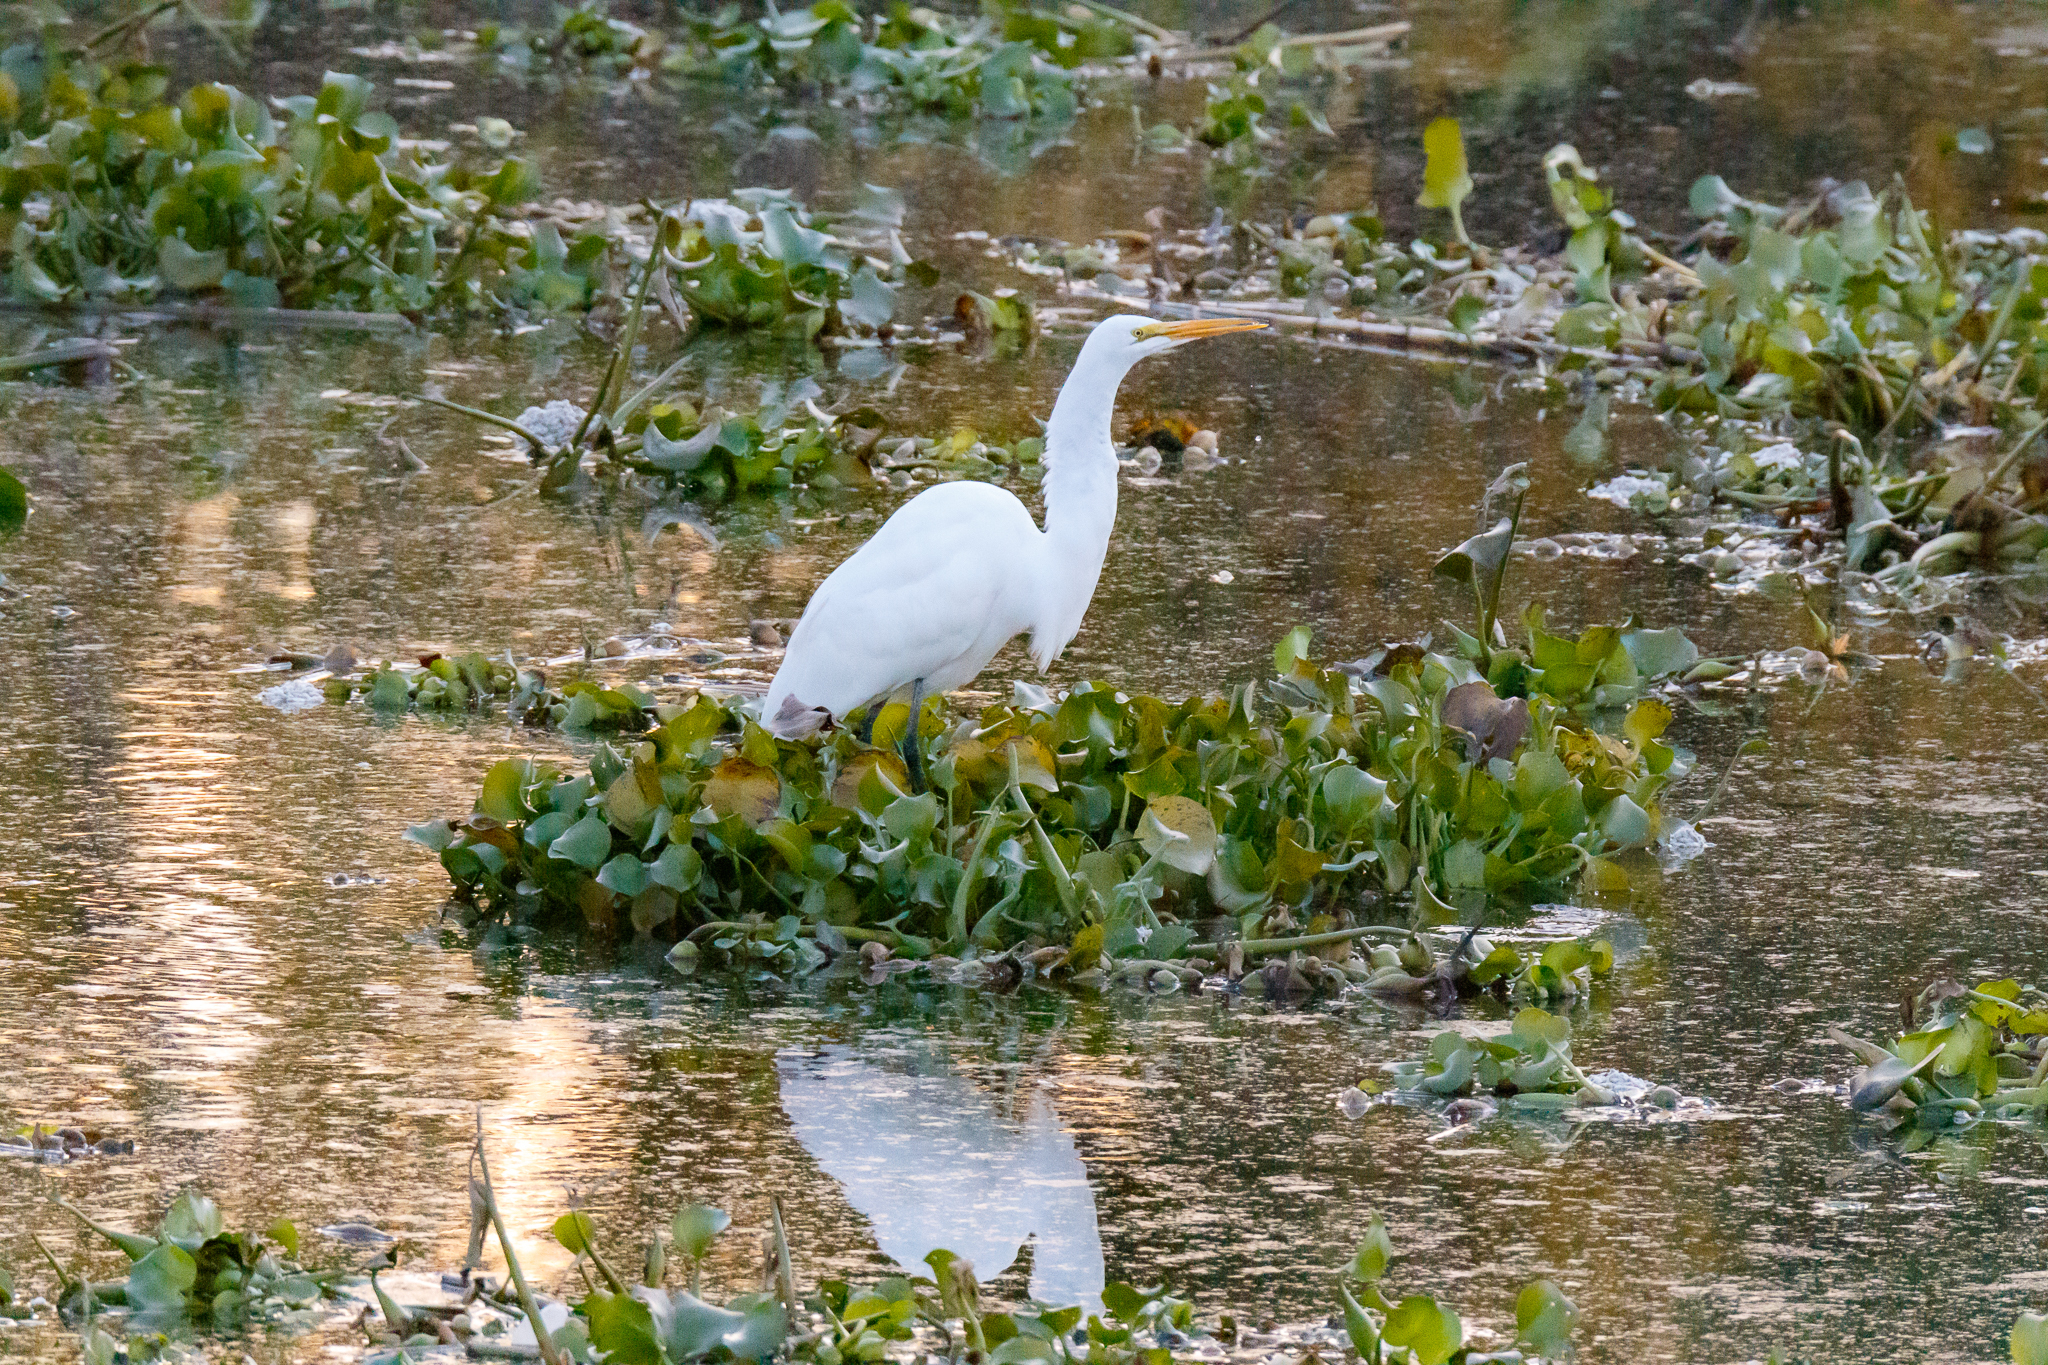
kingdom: Animalia
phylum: Chordata
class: Aves
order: Pelecaniformes
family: Ardeidae
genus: Ardea
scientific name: Ardea alba
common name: Great egret
